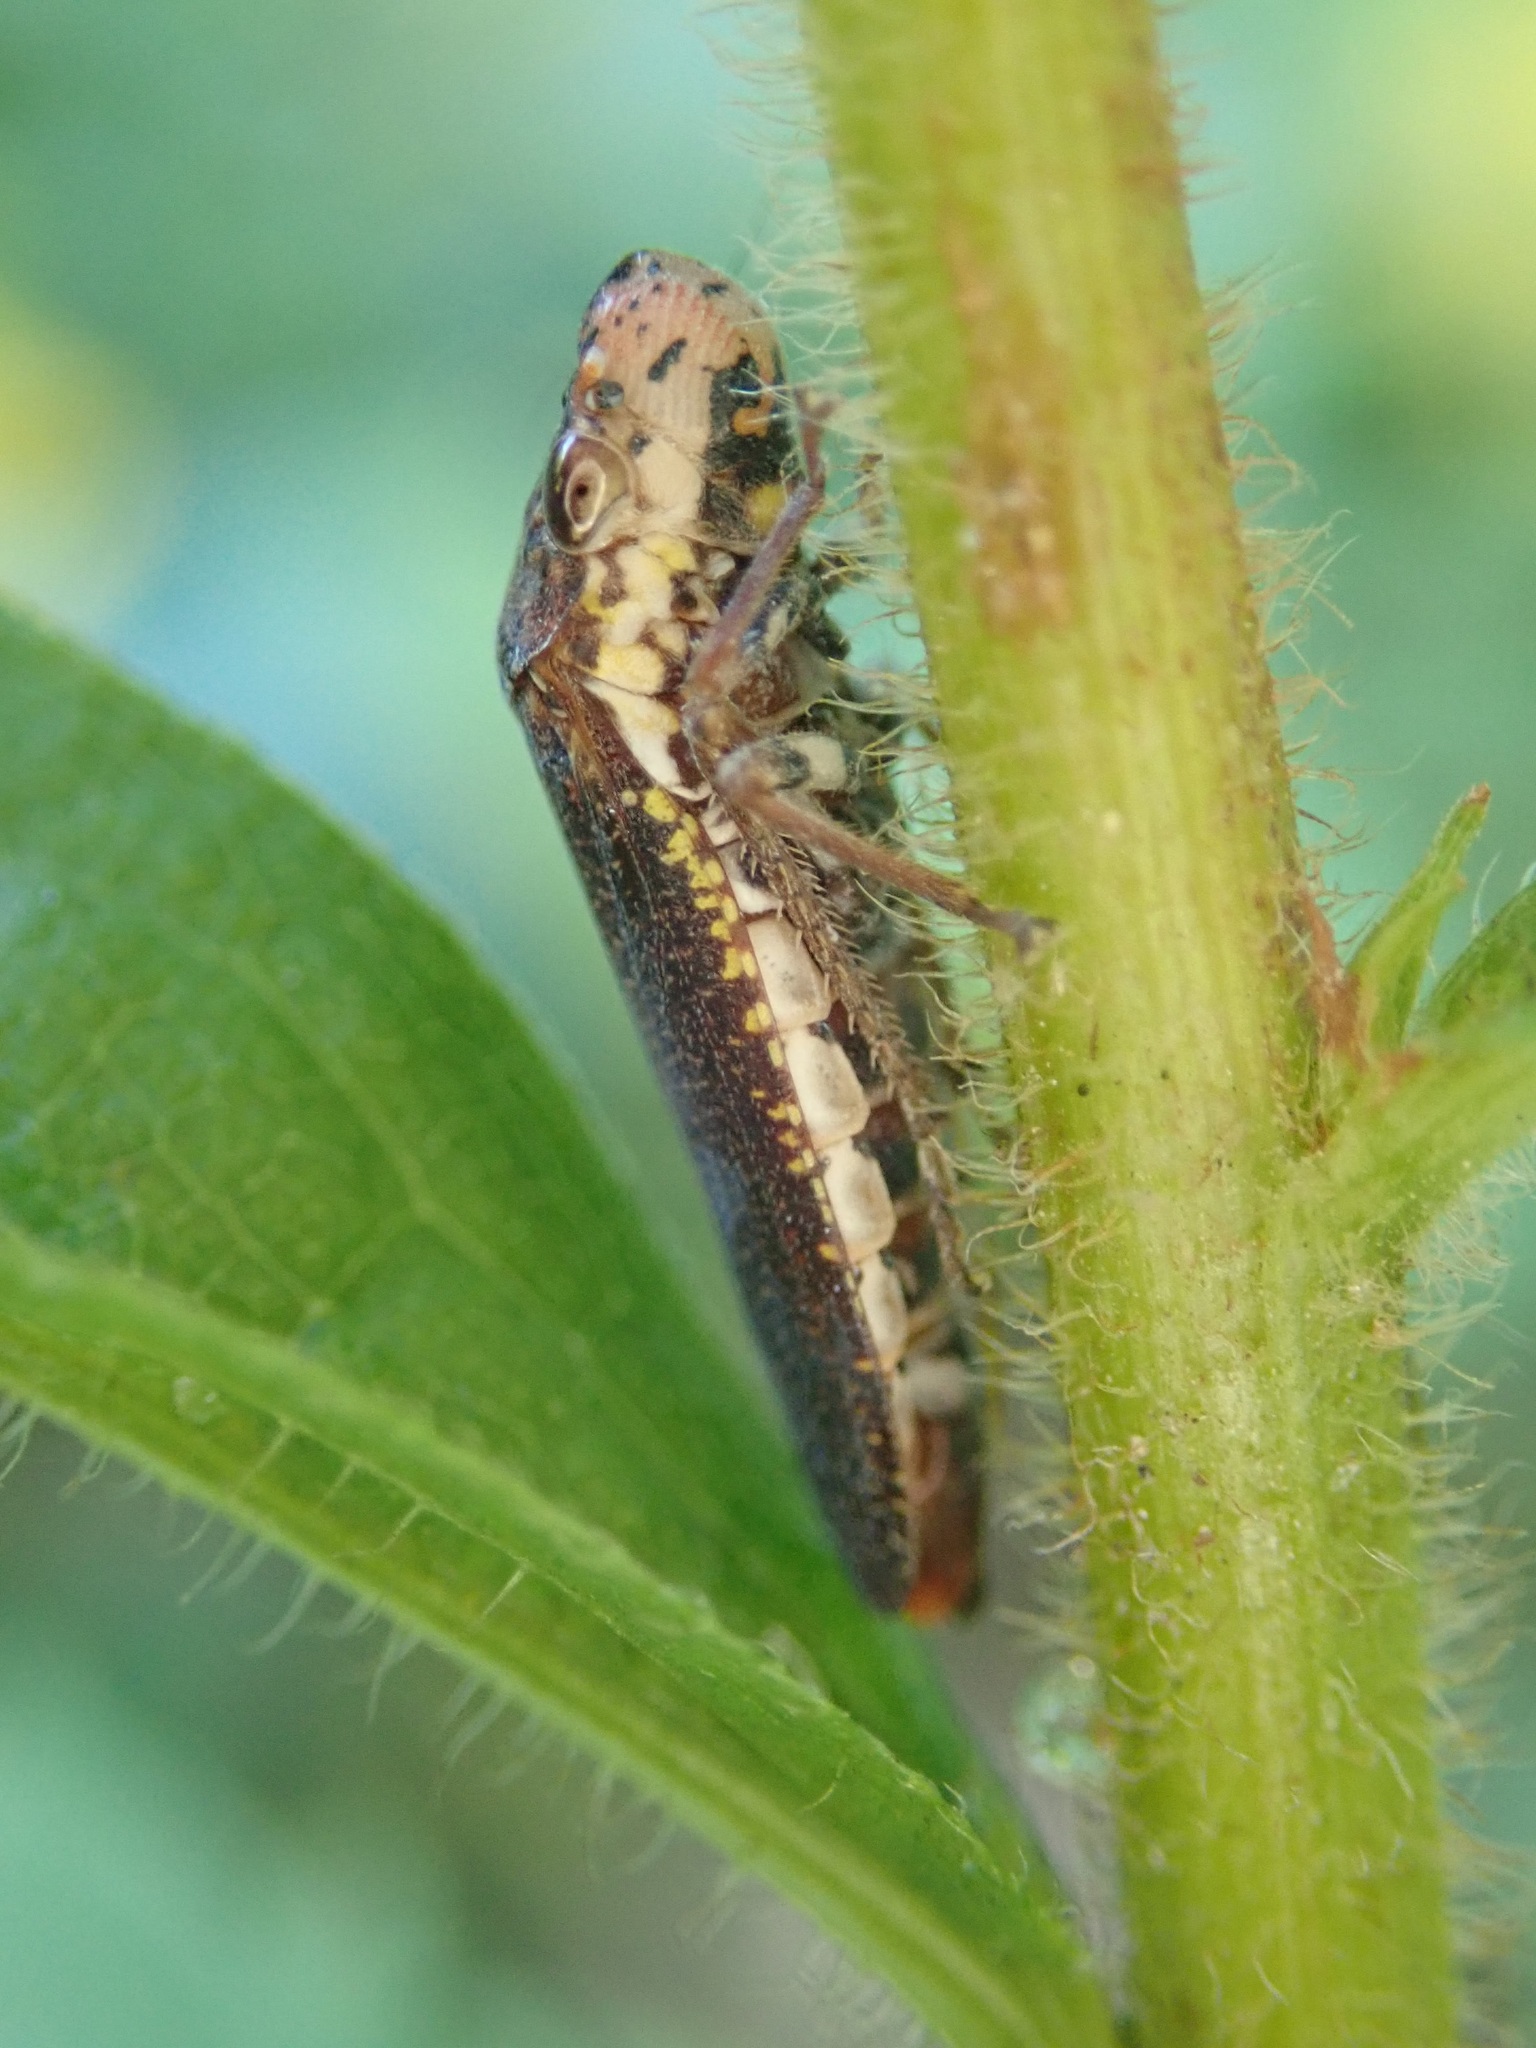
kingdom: Animalia
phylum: Arthropoda
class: Insecta
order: Hemiptera
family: Cicadellidae
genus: Paraulacizes
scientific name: Paraulacizes irrorata
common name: Speckled sharpshooter
